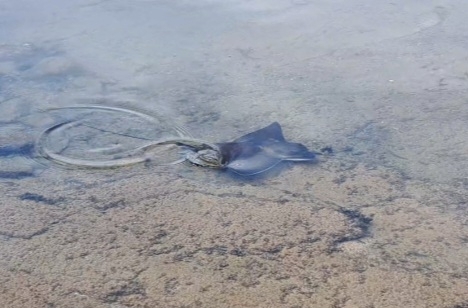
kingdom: Animalia
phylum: Chordata
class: Elasmobranchii
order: Myliobatiformes
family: Myliobatidae
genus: Myliobatis
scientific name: Myliobatis aquila
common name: Eagle ray
